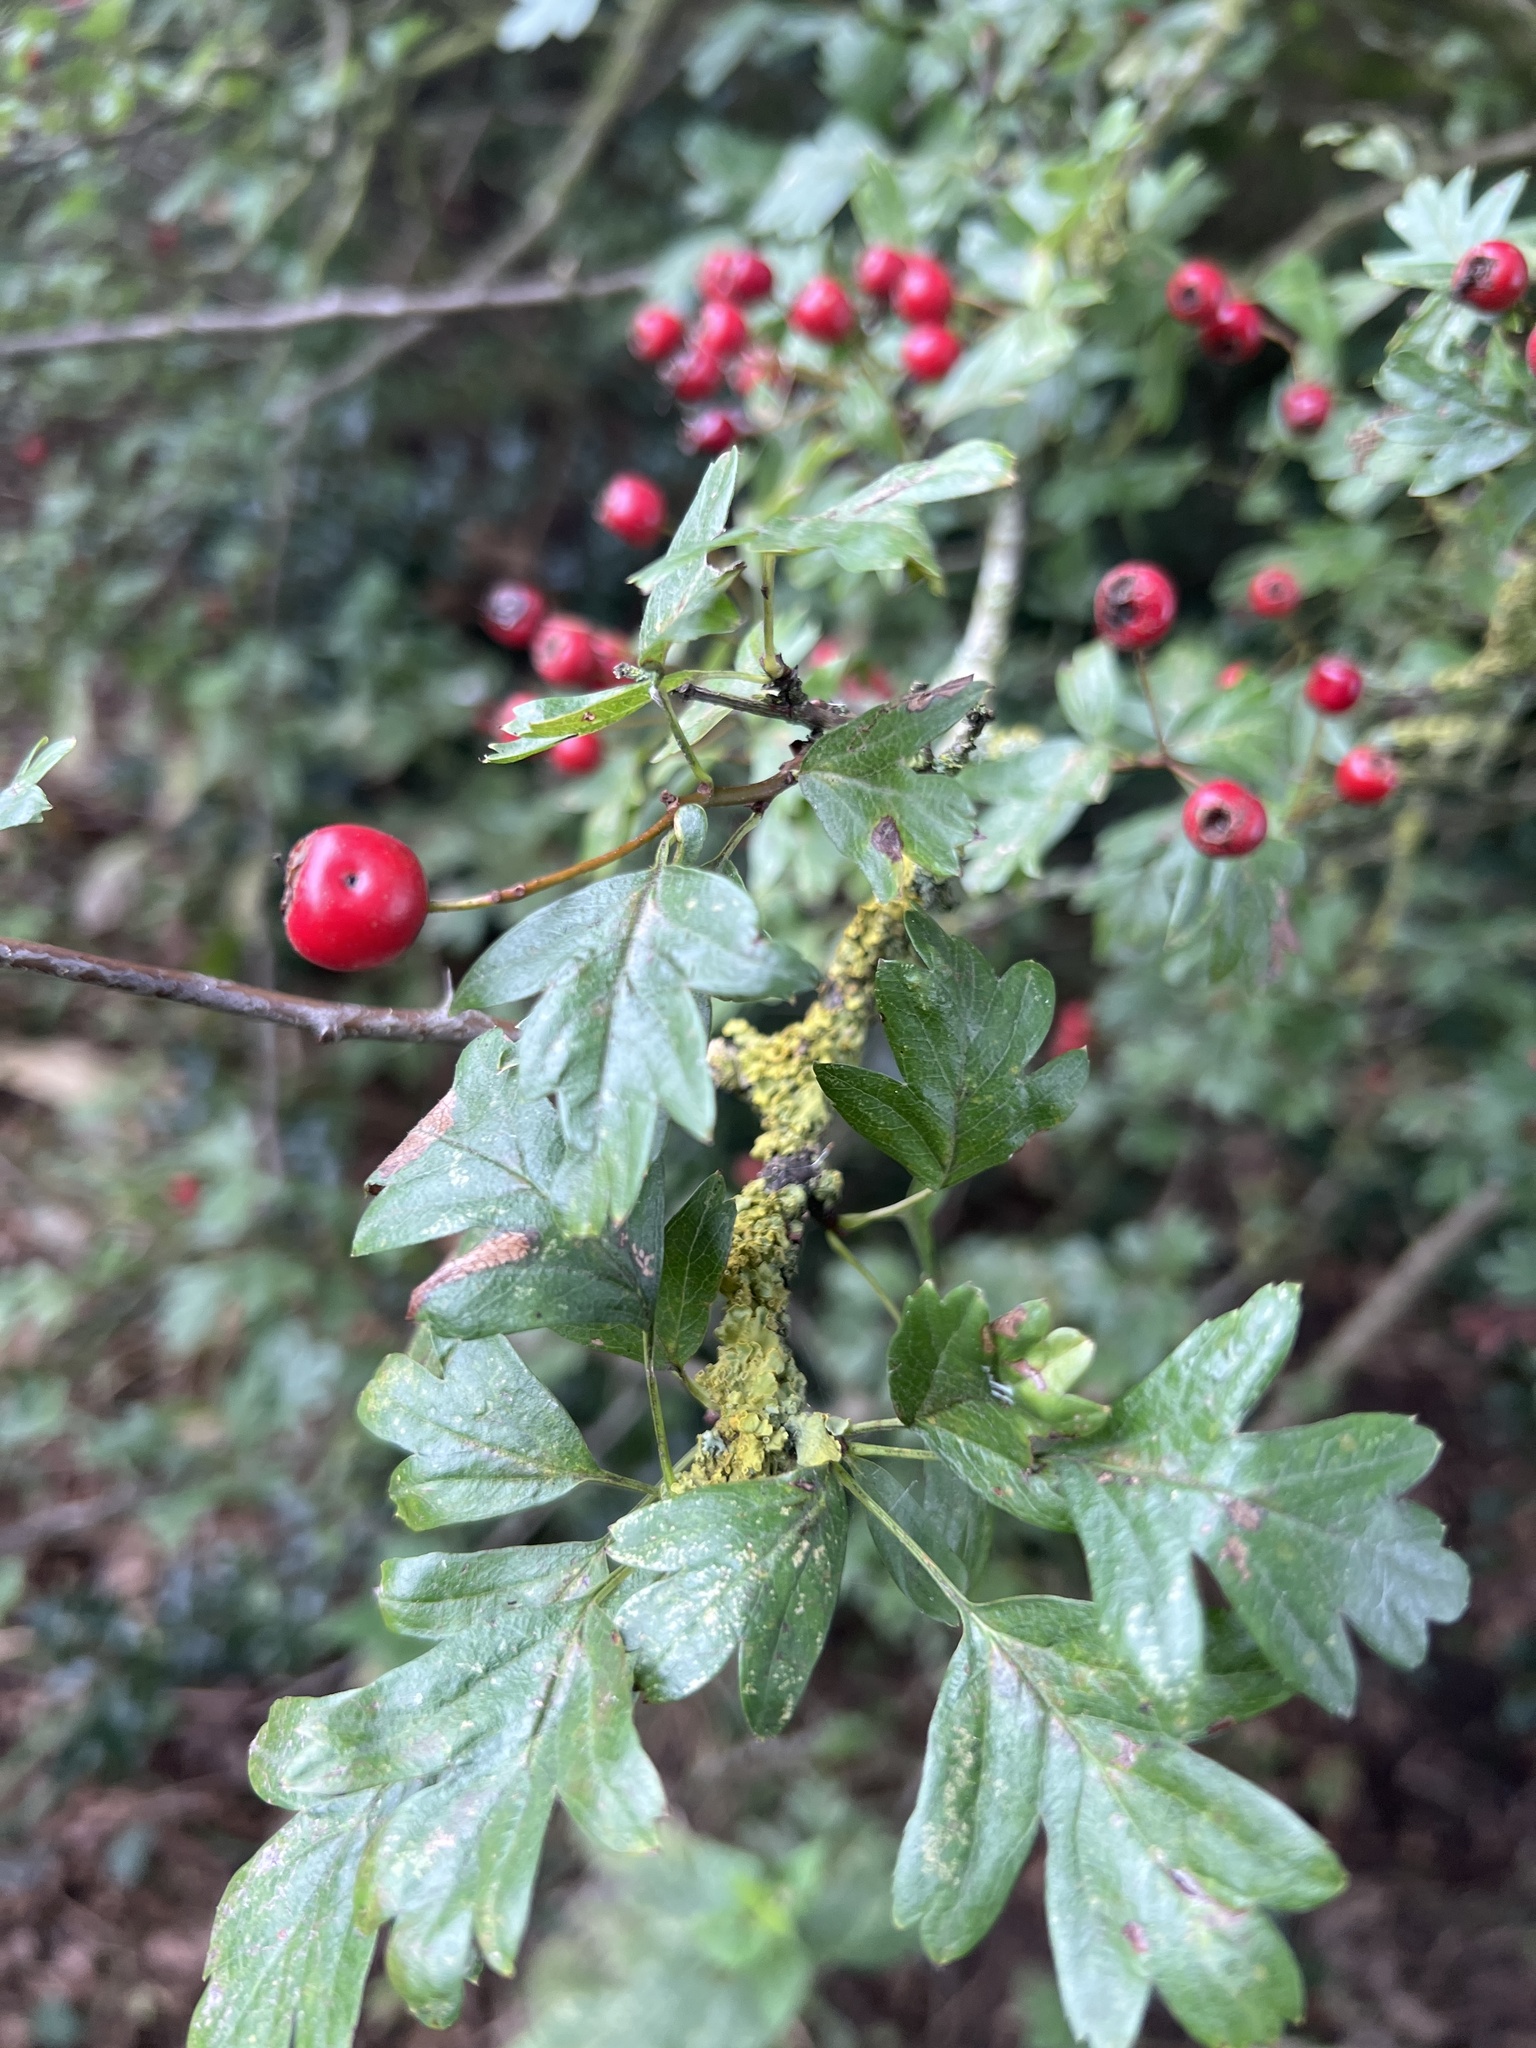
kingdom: Plantae
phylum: Tracheophyta
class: Magnoliopsida
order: Rosales
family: Rosaceae
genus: Crataegus
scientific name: Crataegus monogyna
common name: Hawthorn
